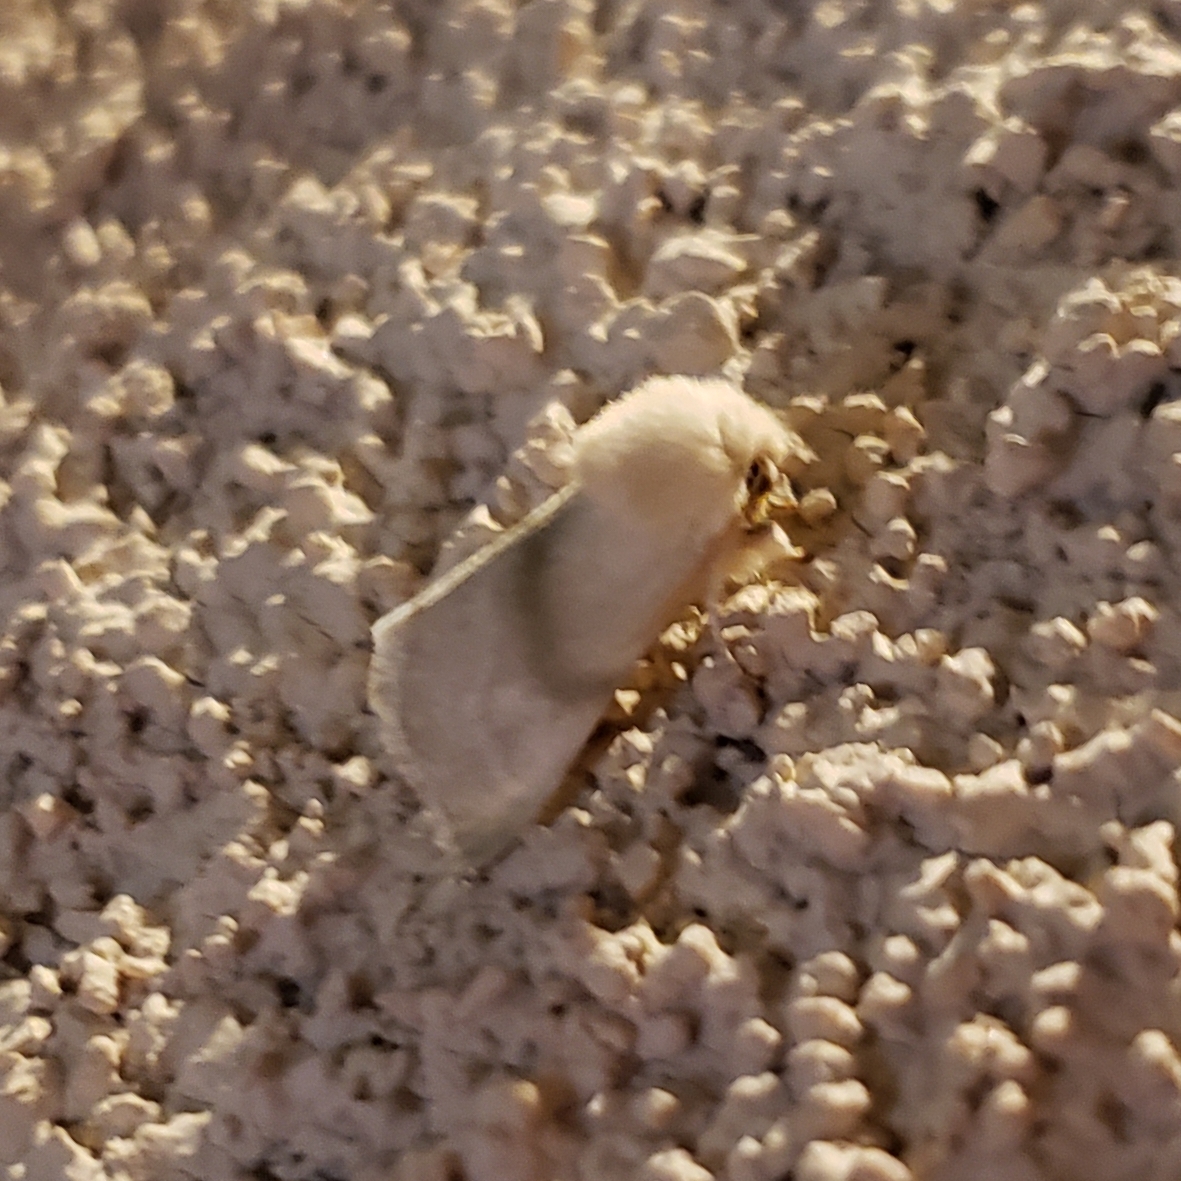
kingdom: Animalia
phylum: Arthropoda
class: Insecta
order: Lepidoptera
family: Noctuidae
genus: Nocloa
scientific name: Nocloa pallens
